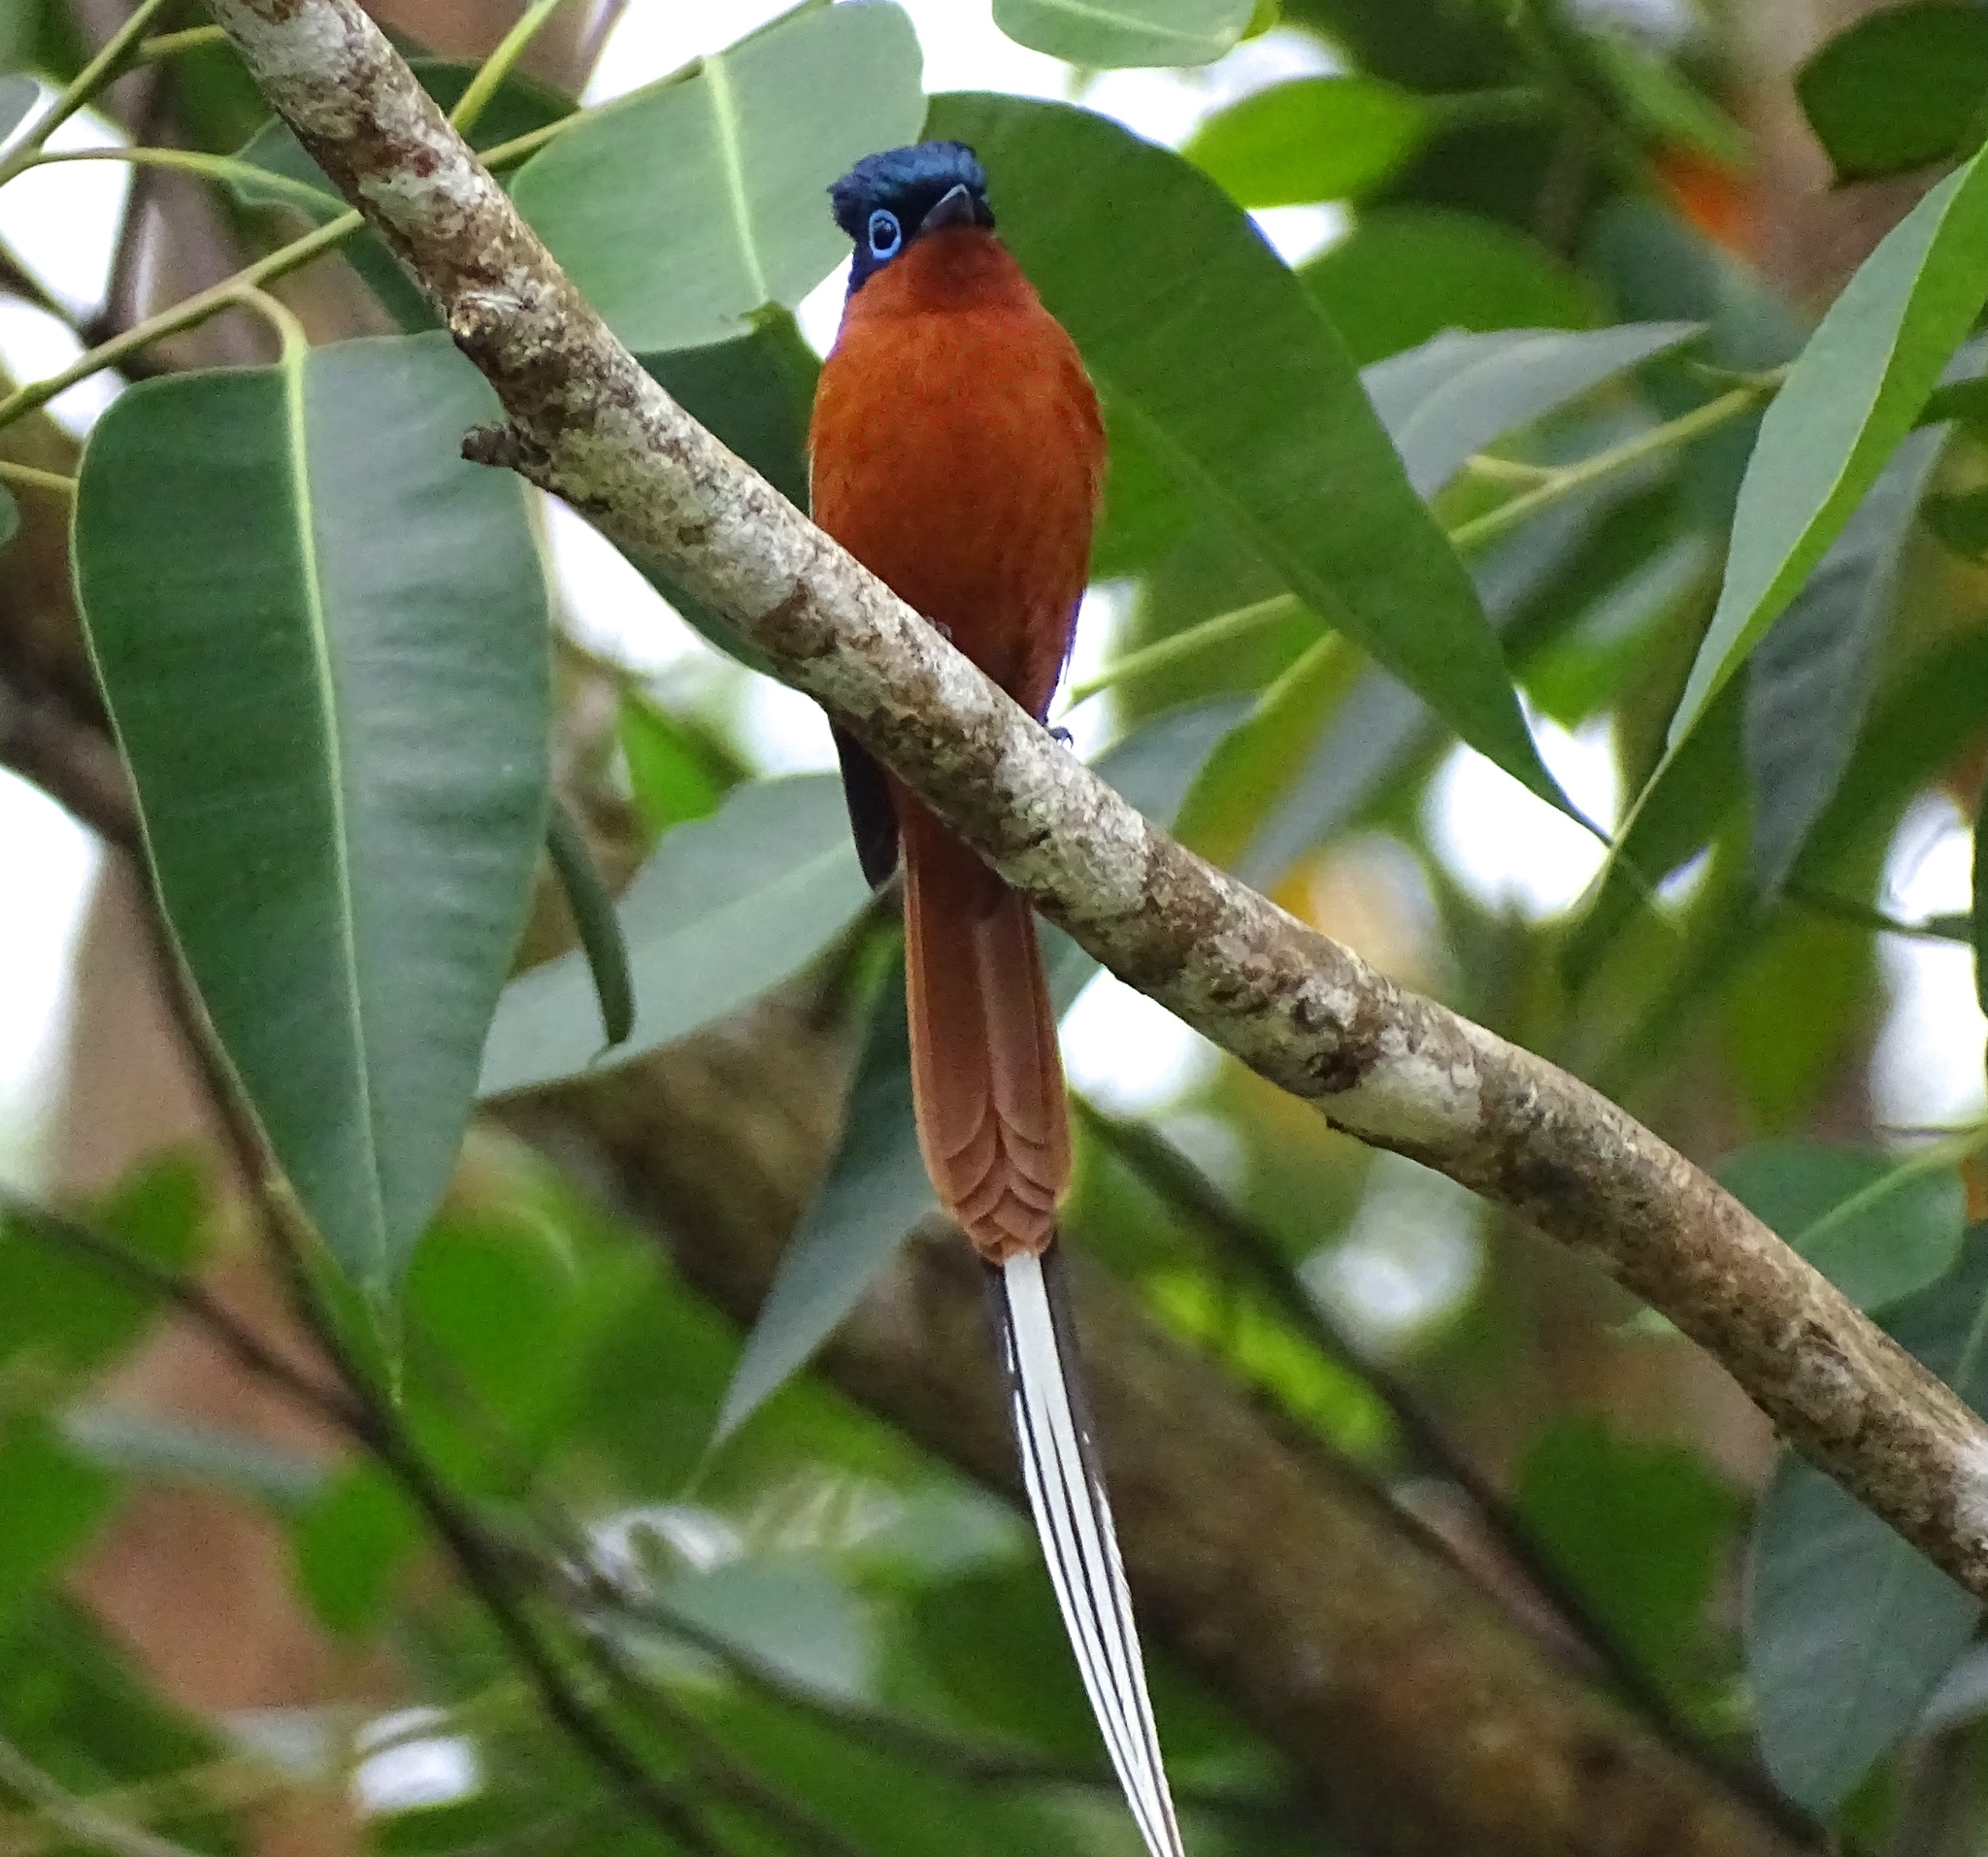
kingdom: Animalia
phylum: Chordata
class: Aves
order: Passeriformes
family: Monarchidae
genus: Terpsiphone
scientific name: Terpsiphone mutata
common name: Malagasy paradise flycatcher
